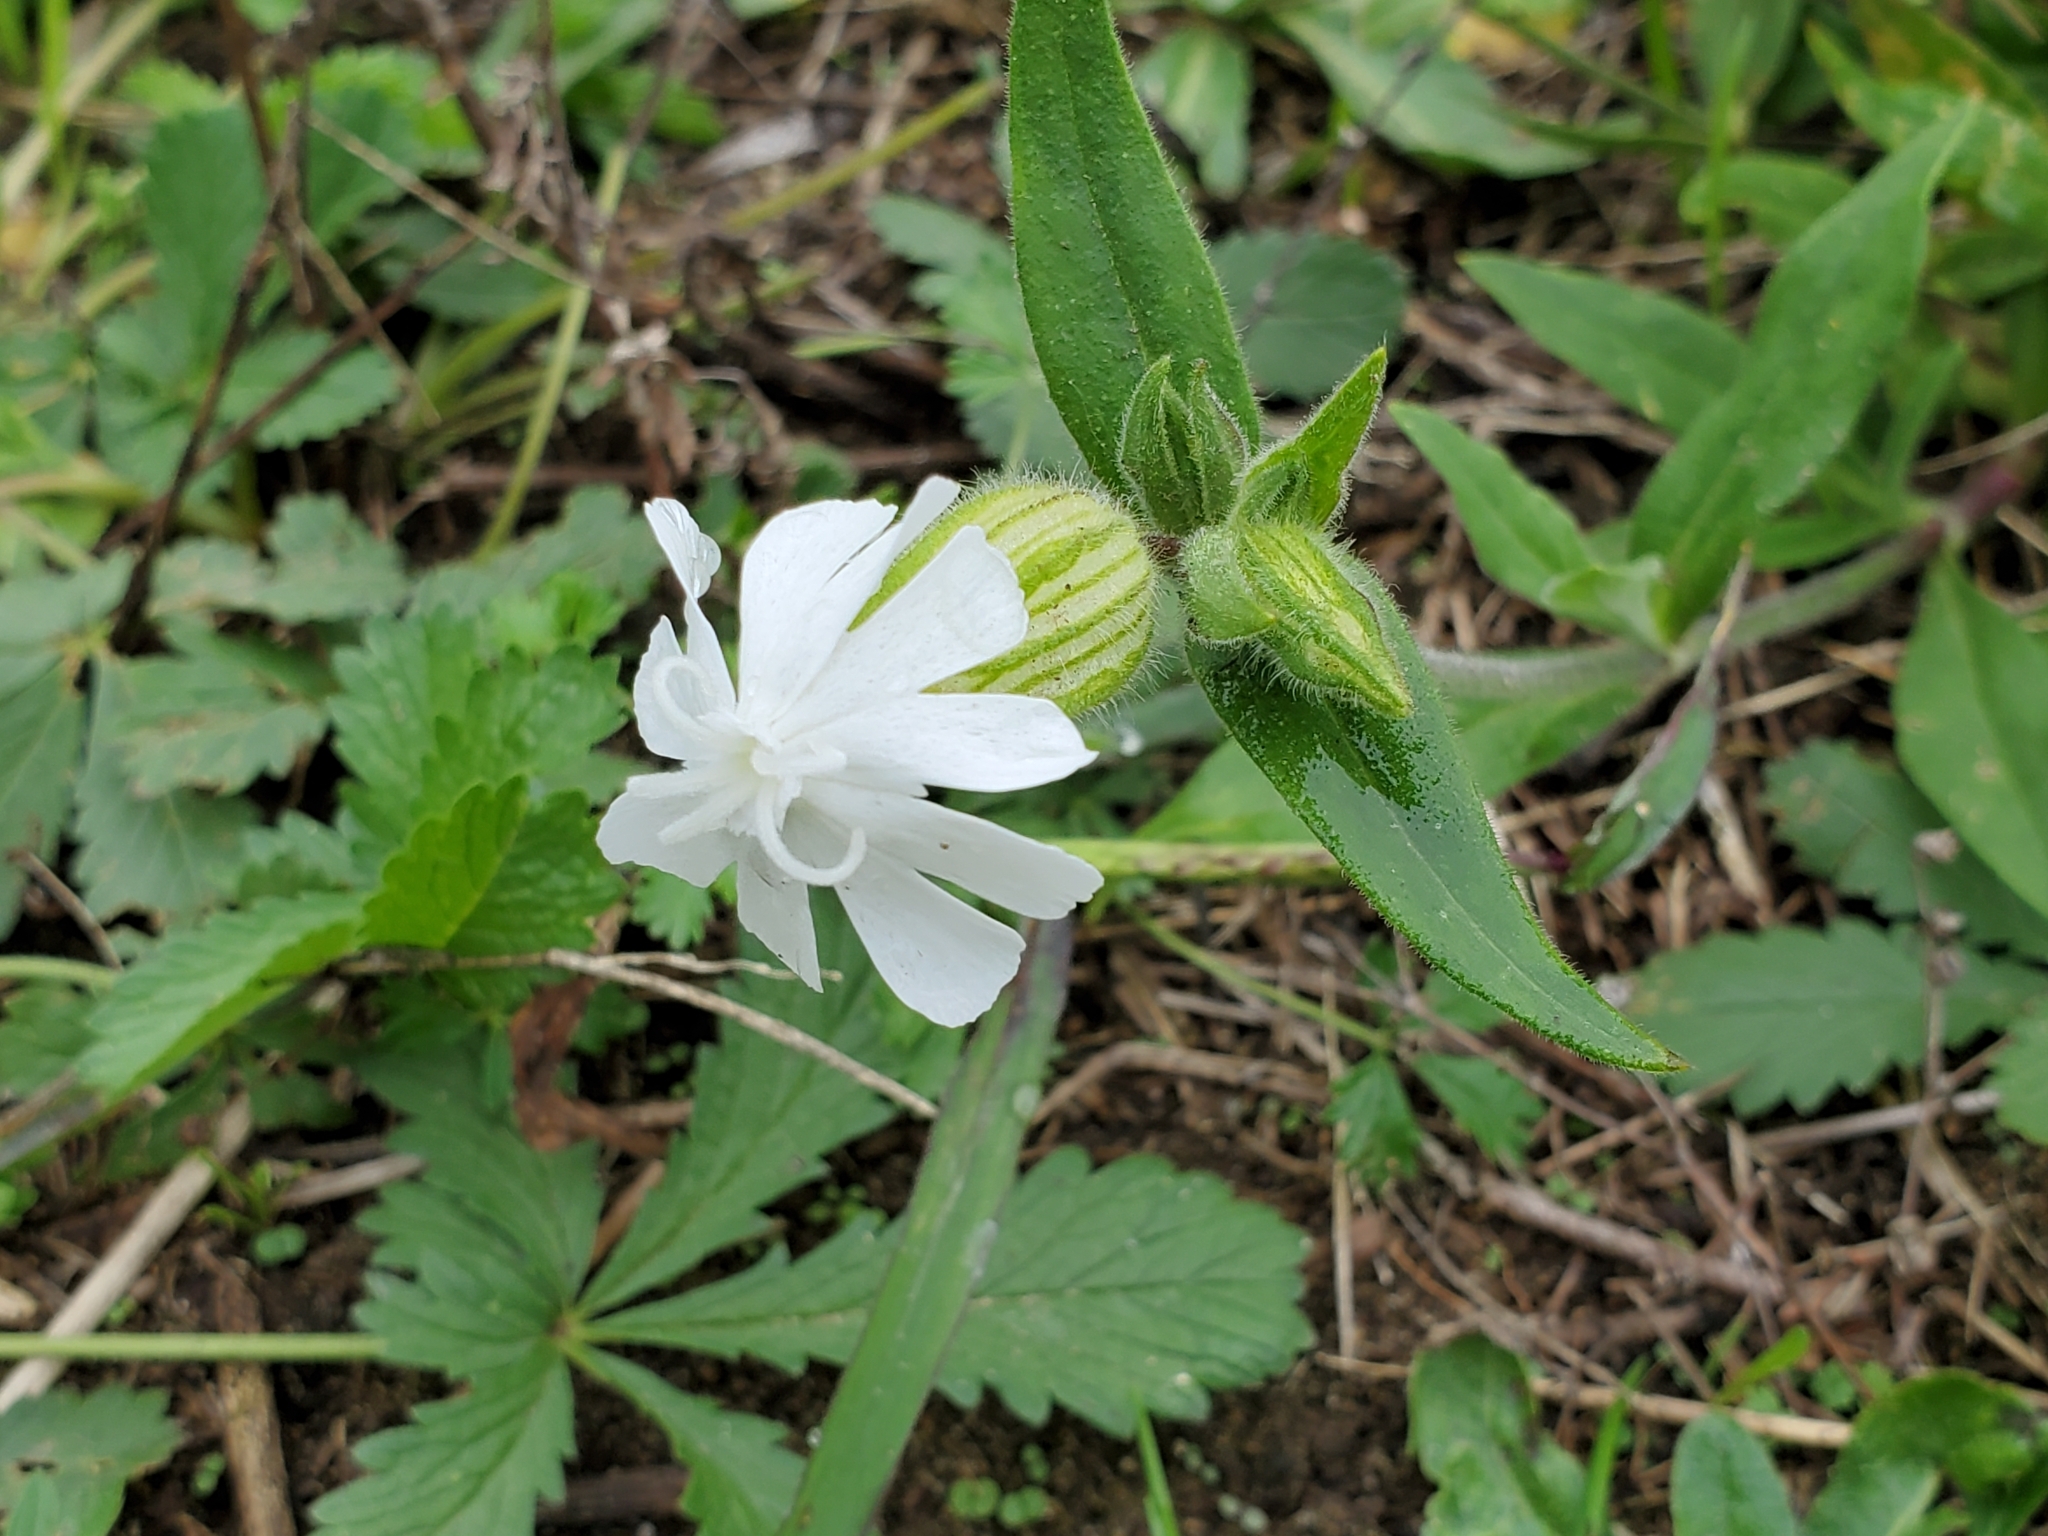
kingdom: Plantae
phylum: Tracheophyta
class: Magnoliopsida
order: Caryophyllales
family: Caryophyllaceae
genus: Silene
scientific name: Silene latifolia
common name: White campion
